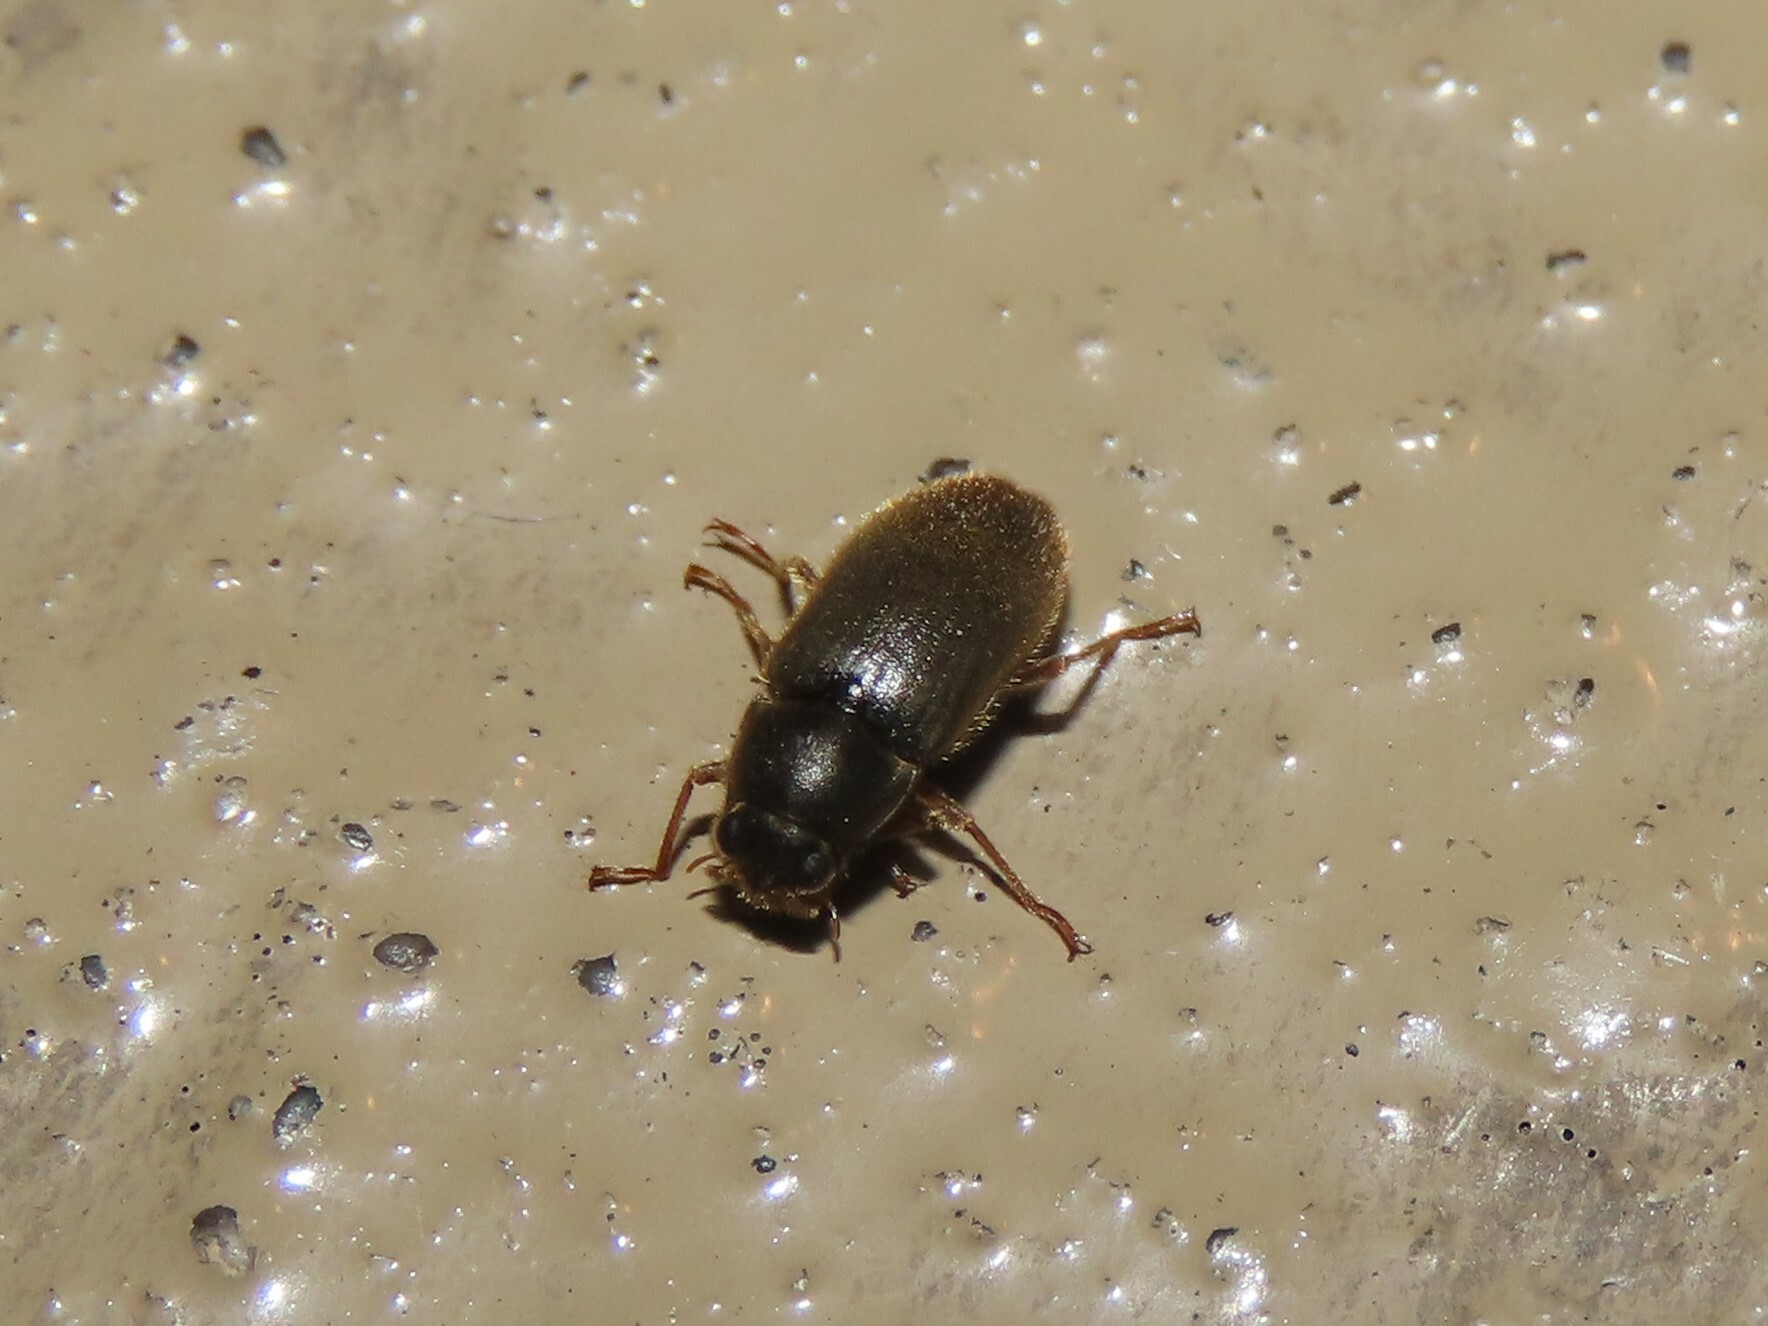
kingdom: Animalia
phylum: Arthropoda
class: Insecta
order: Coleoptera
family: Dryopidae
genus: Pelonomus
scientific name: Pelonomus obscurus
